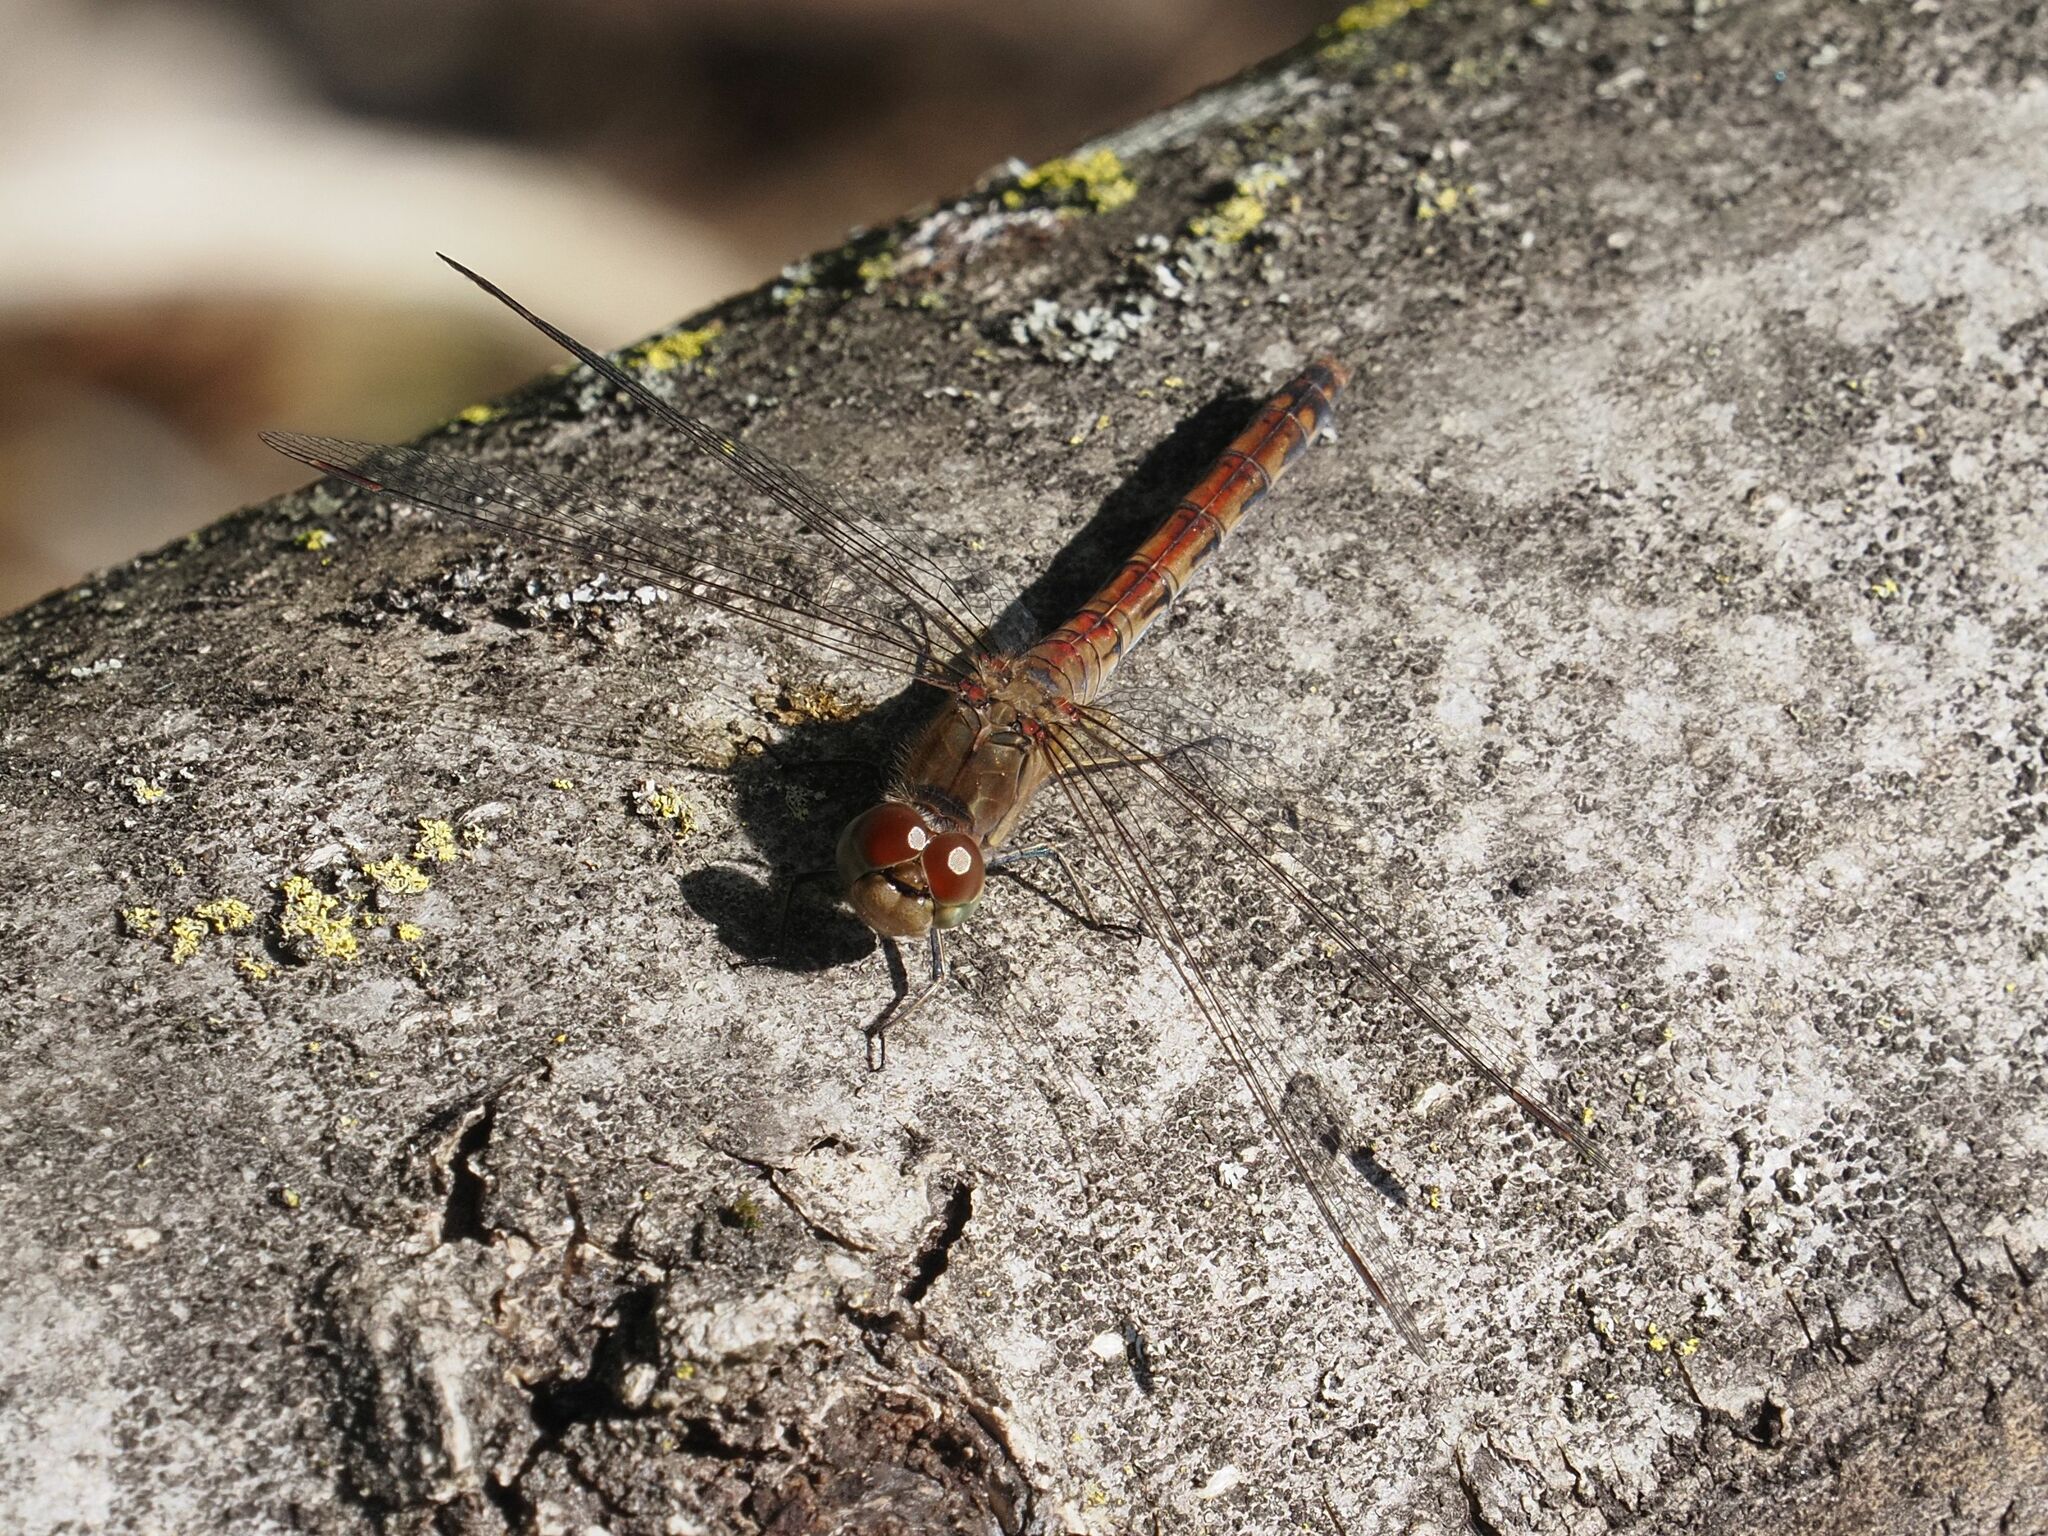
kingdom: Animalia
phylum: Arthropoda
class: Insecta
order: Odonata
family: Libellulidae
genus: Sympetrum
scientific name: Sympetrum striolatum
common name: Common darter
